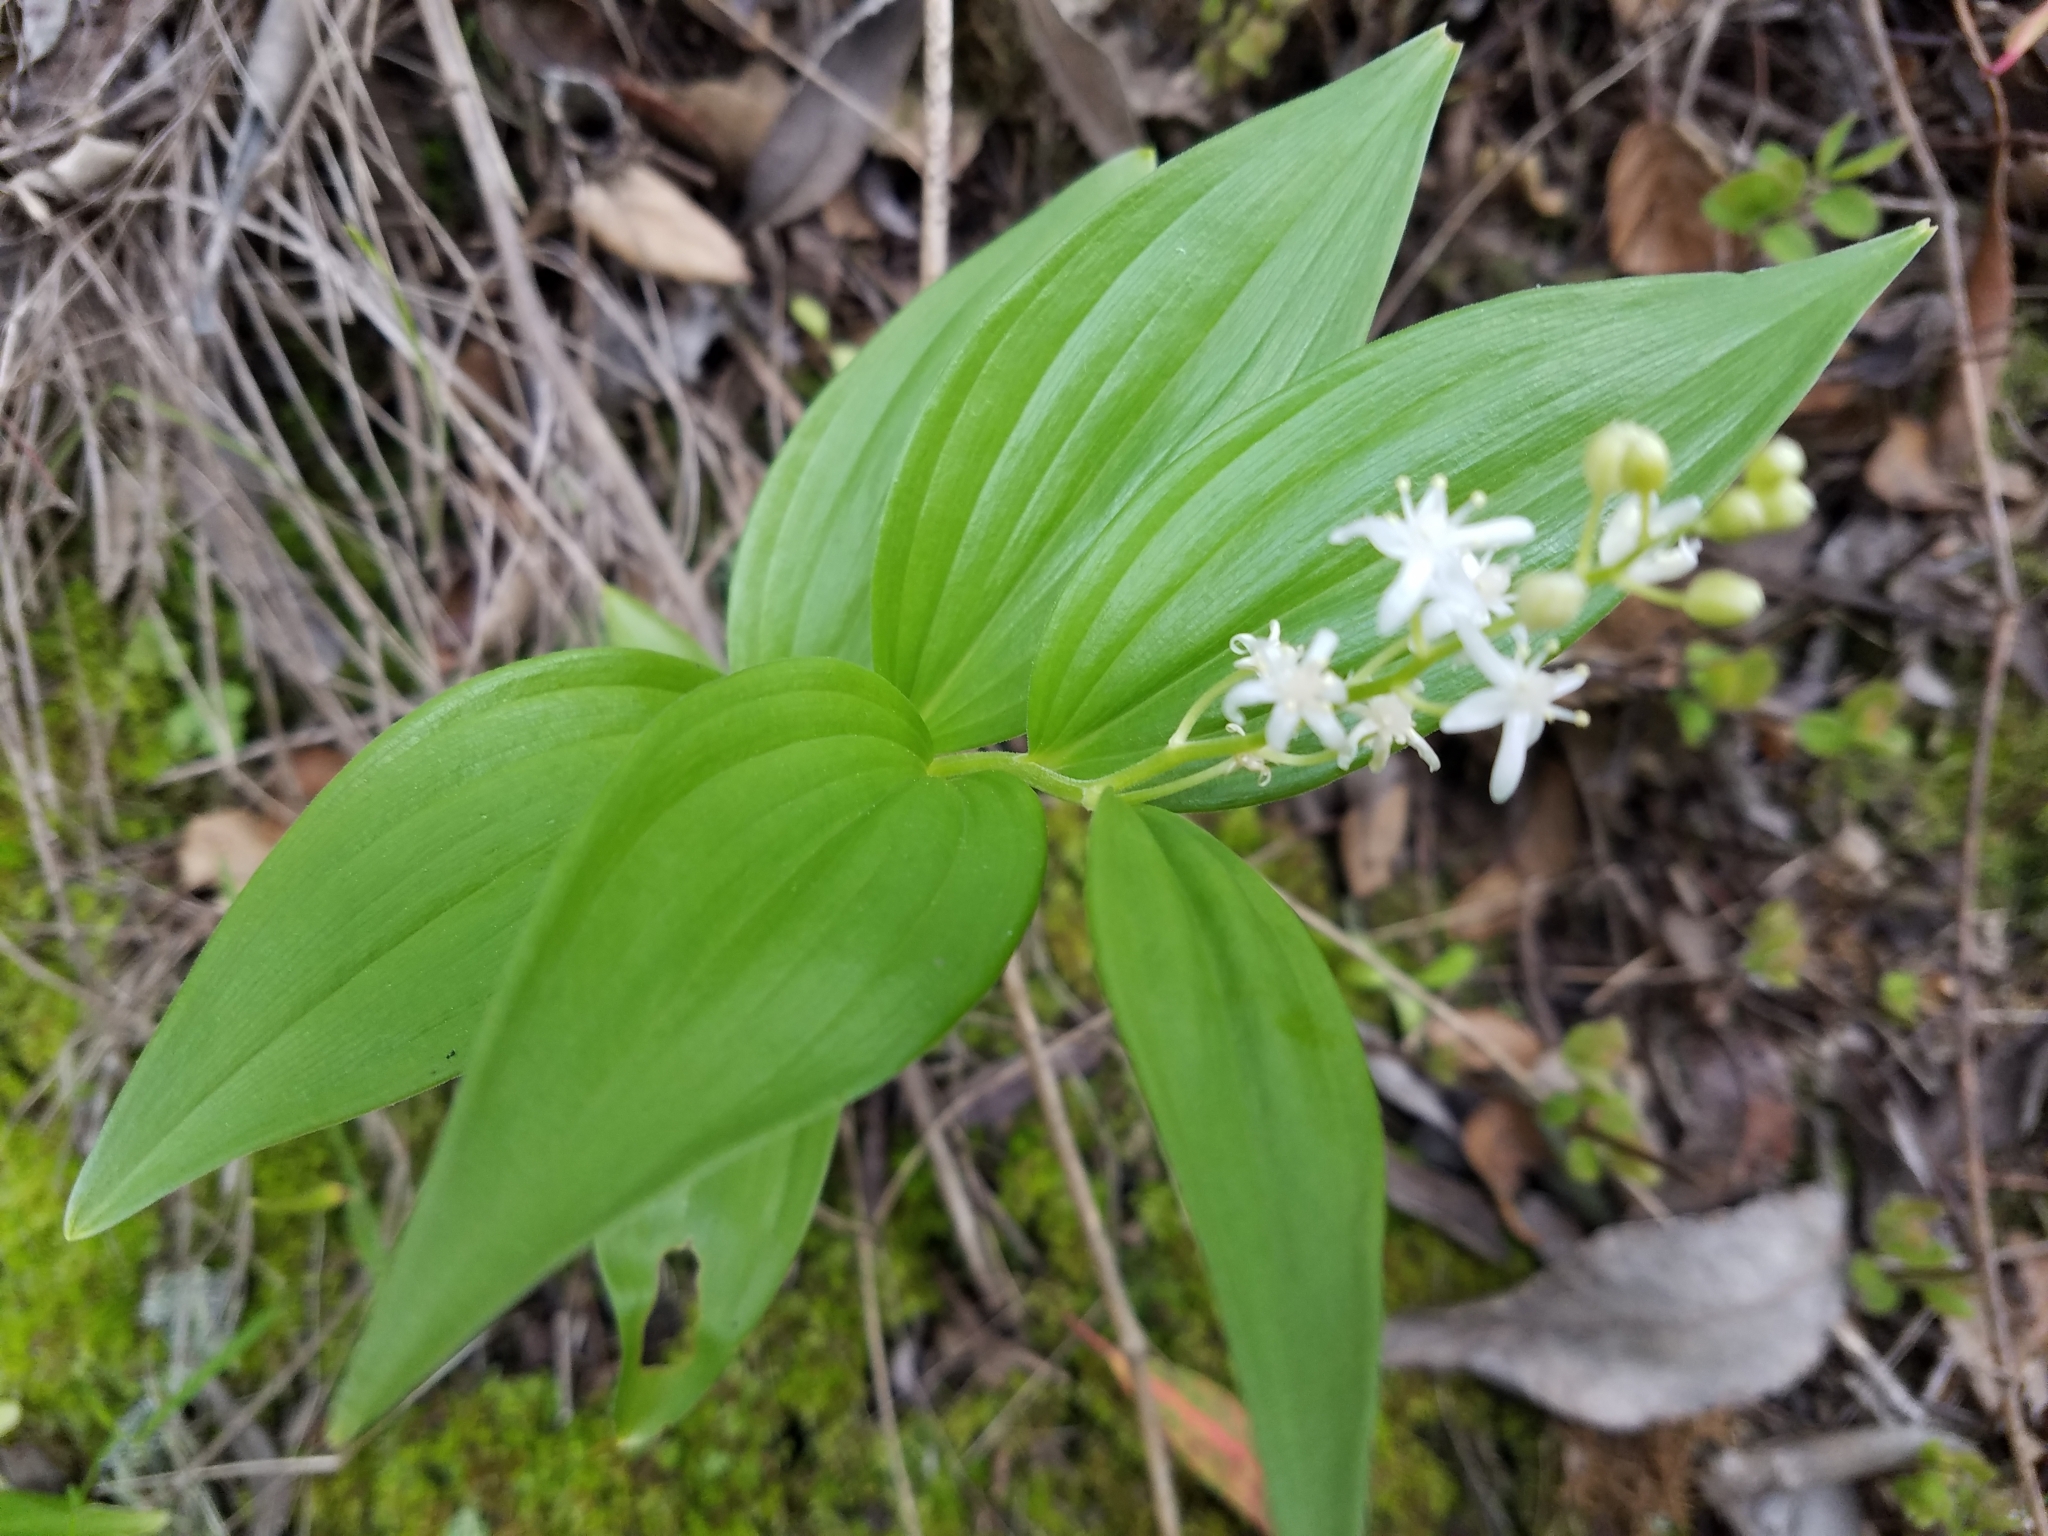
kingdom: Plantae
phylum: Tracheophyta
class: Liliopsida
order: Asparagales
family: Asparagaceae
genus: Maianthemum
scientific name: Maianthemum stellatum
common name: Little false solomon's seal
